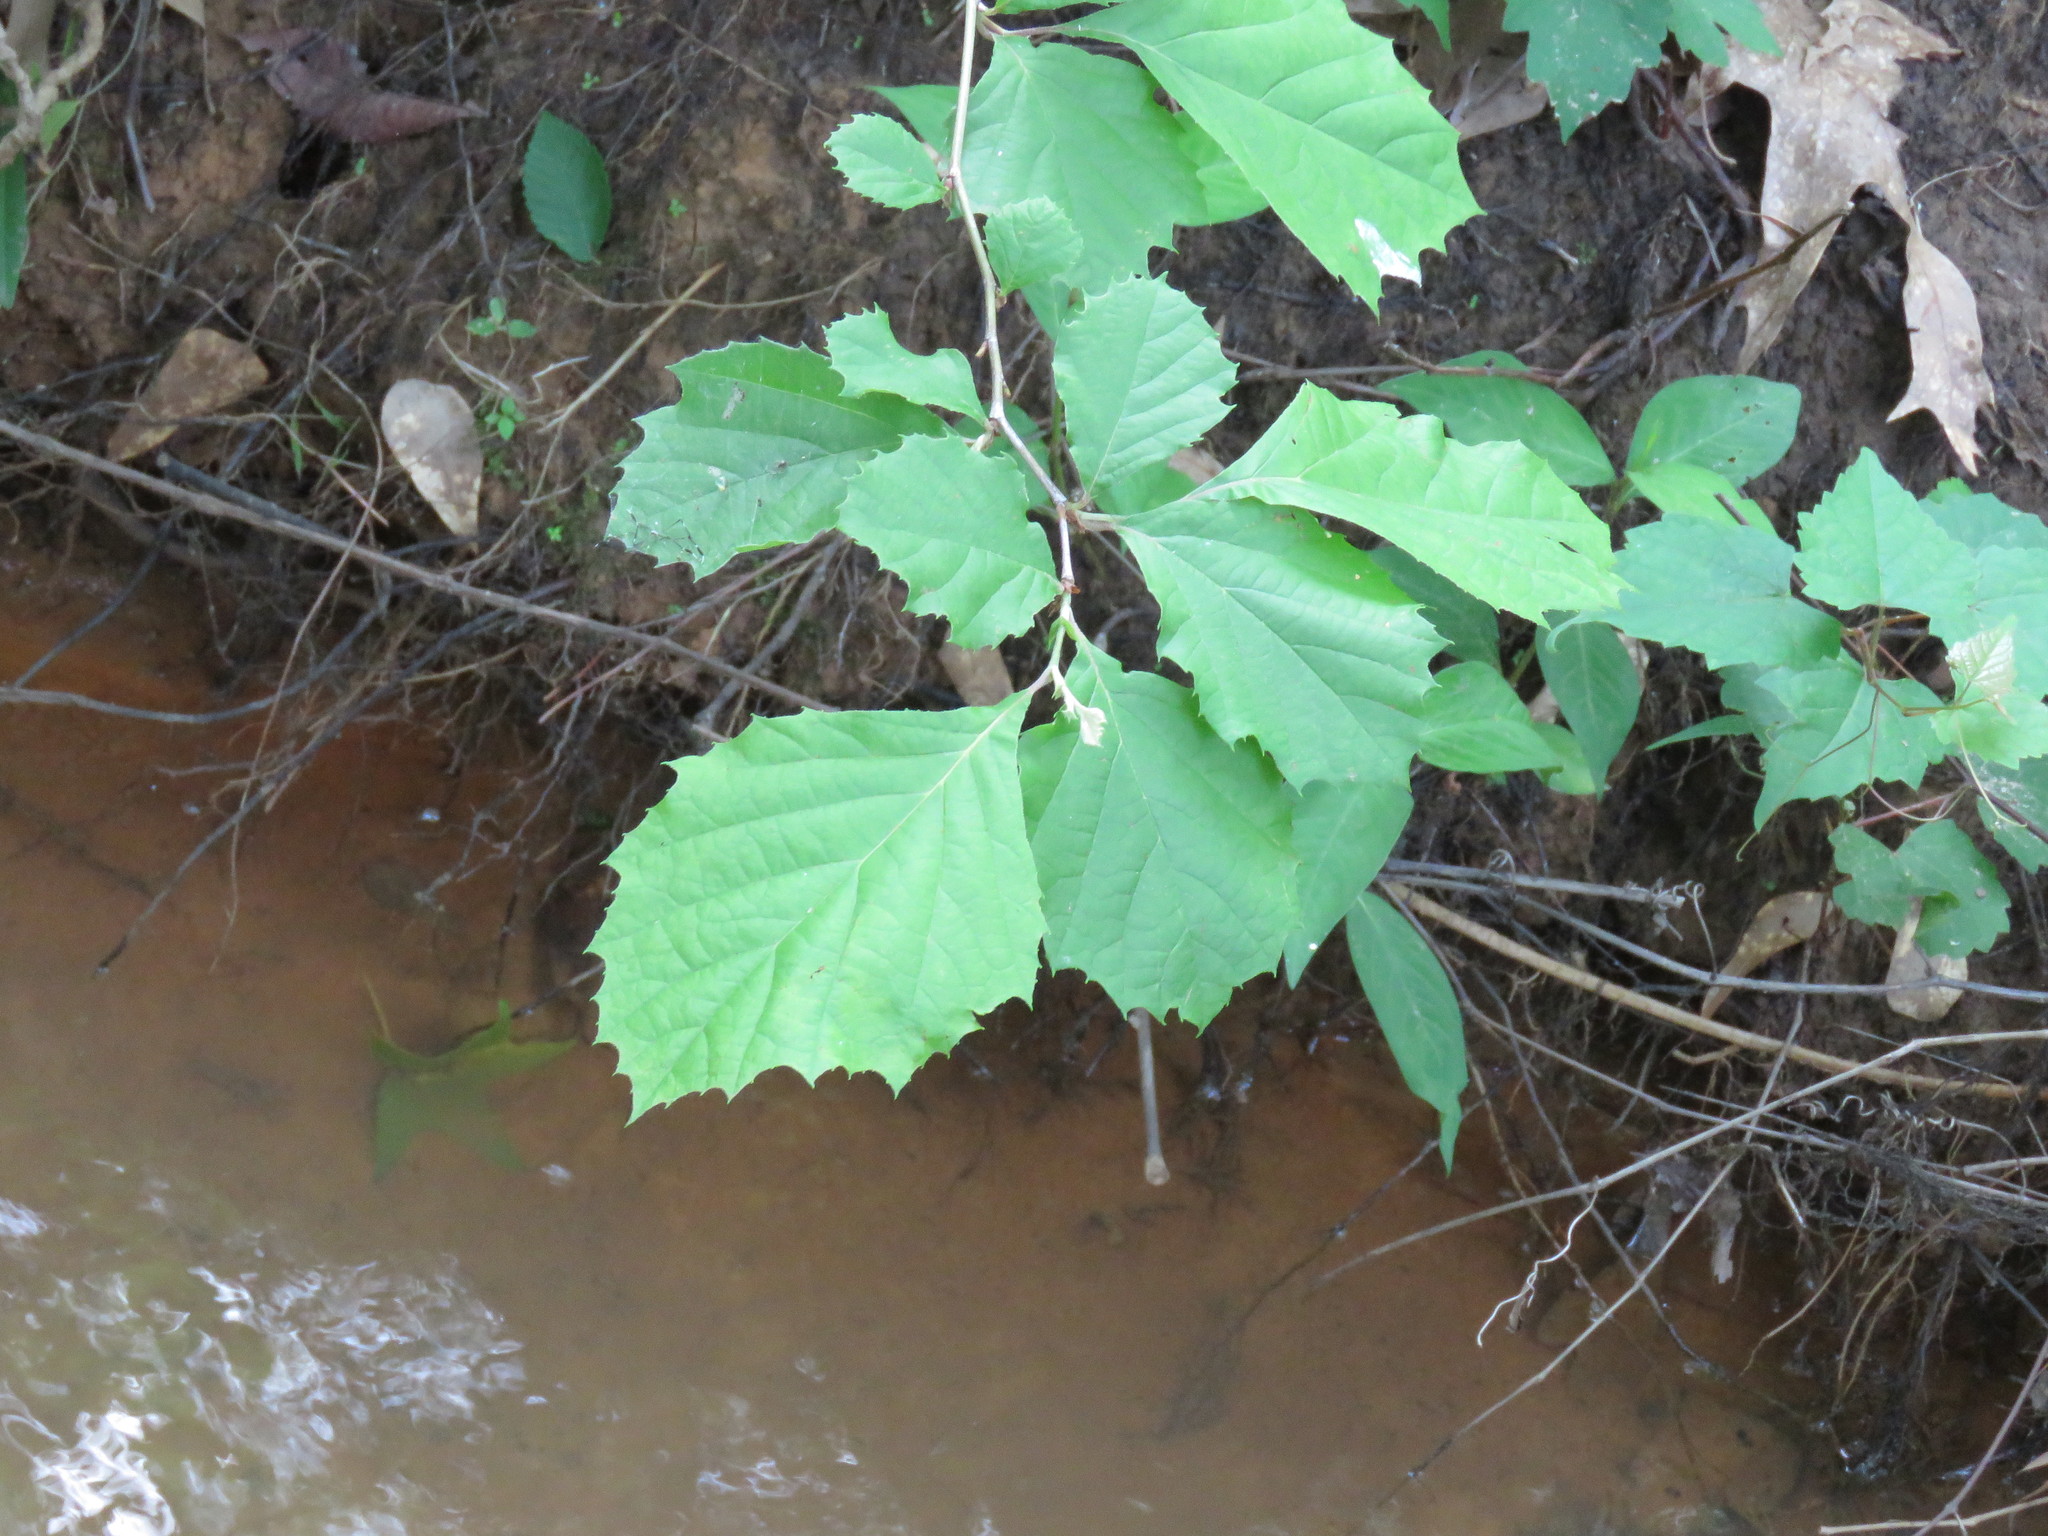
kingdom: Plantae
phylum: Tracheophyta
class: Magnoliopsida
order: Proteales
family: Platanaceae
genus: Platanus
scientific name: Platanus occidentalis
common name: American sycamore
